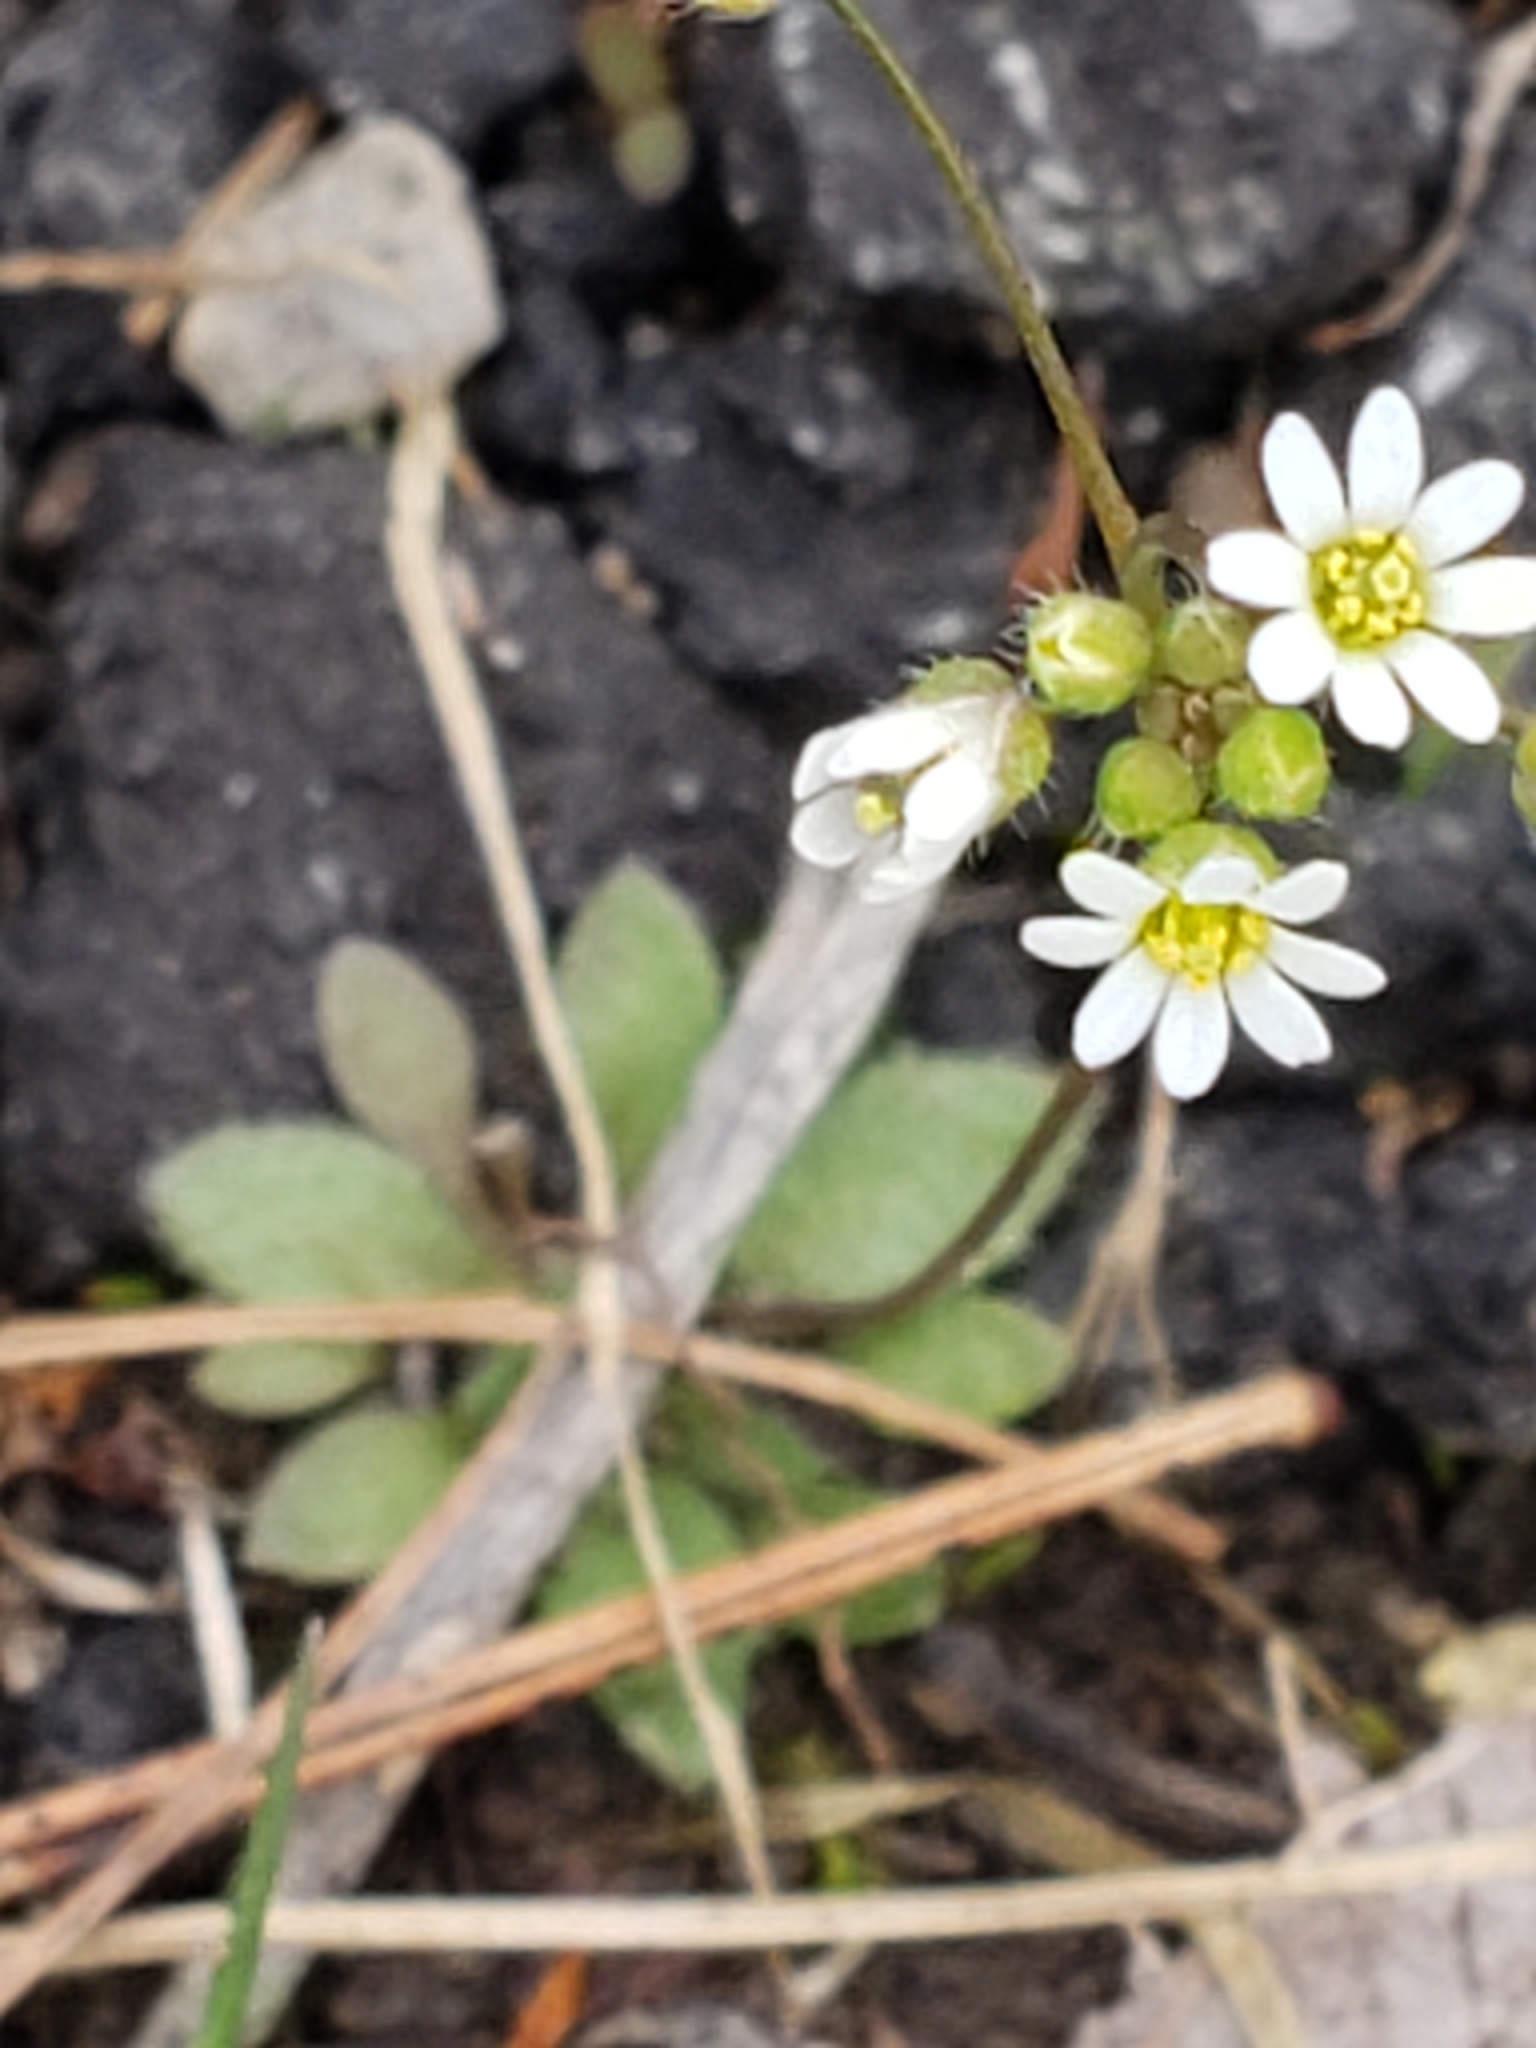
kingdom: Plantae
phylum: Tracheophyta
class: Magnoliopsida
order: Brassicales
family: Brassicaceae
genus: Draba
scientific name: Draba verna
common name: Spring draba
